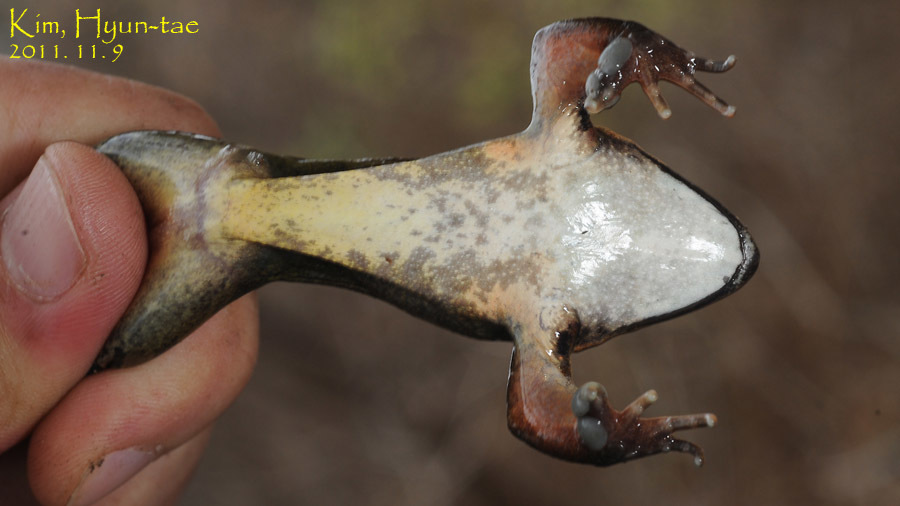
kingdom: Animalia
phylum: Chordata
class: Amphibia
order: Anura
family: Ranidae
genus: Rana
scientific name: Rana uenoi
